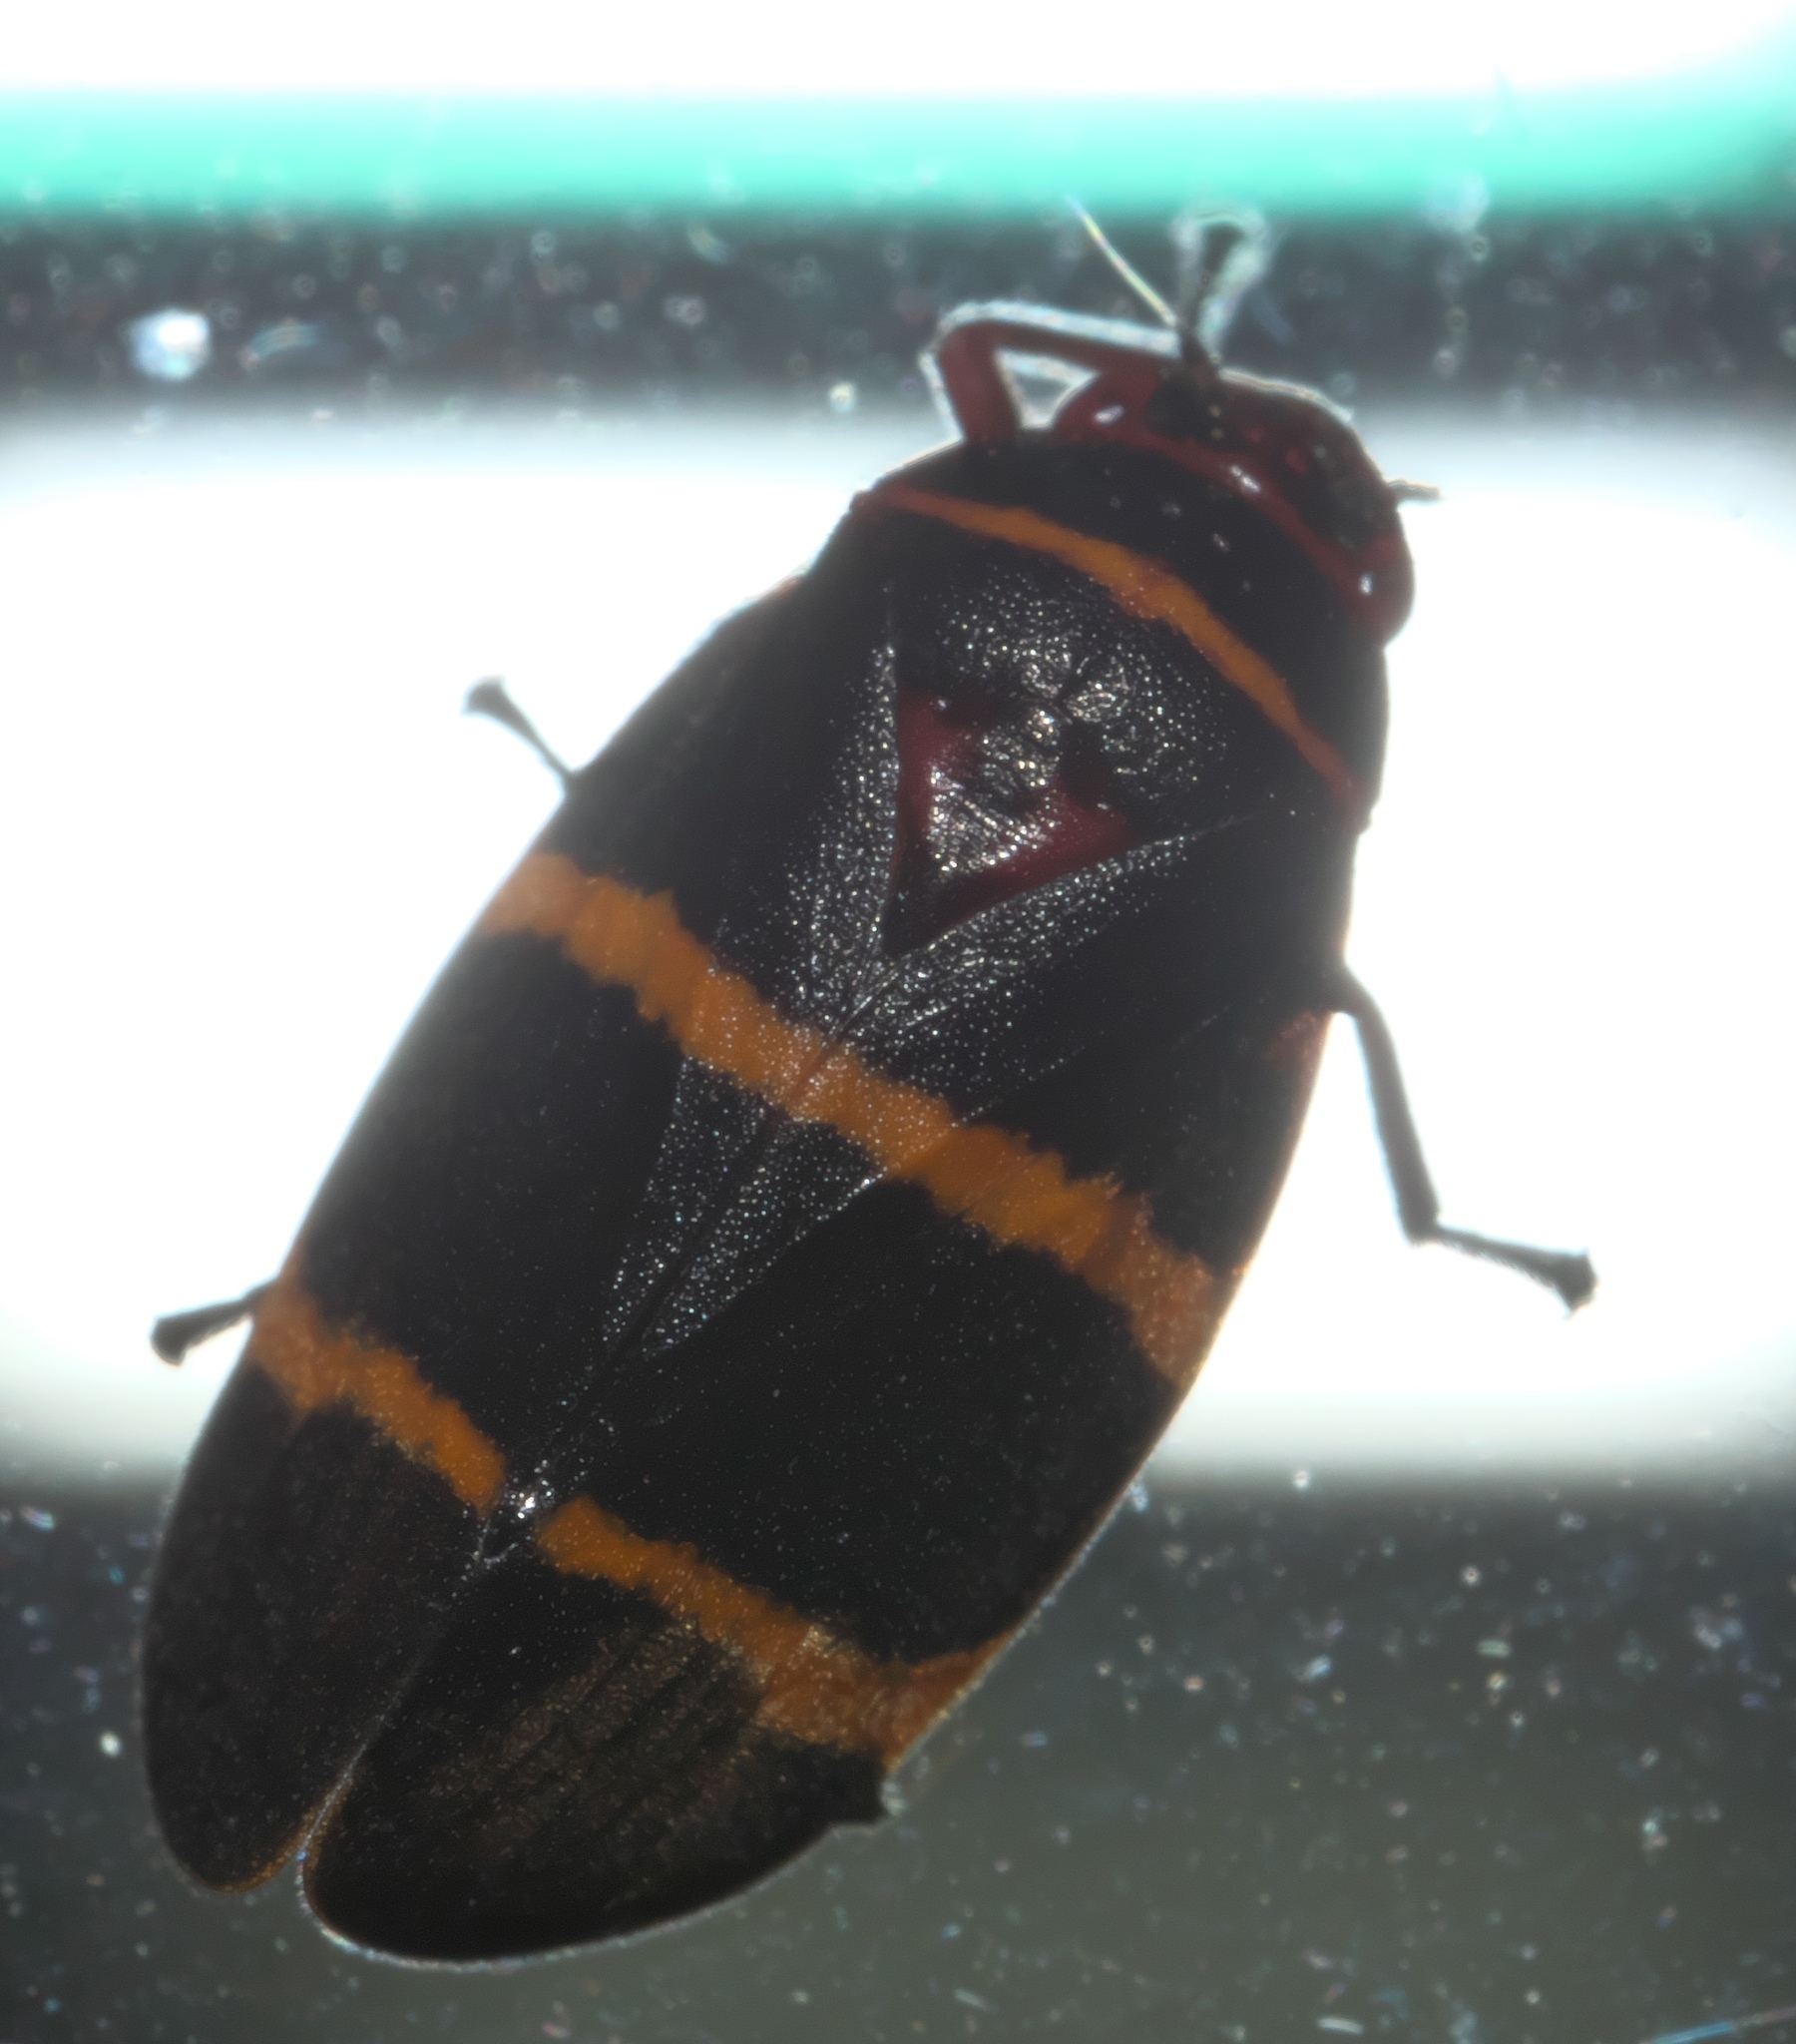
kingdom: Animalia
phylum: Arthropoda
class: Insecta
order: Hemiptera
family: Cercopidae
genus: Prosapia
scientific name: Prosapia bicincta
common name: Twolined spittlebug
